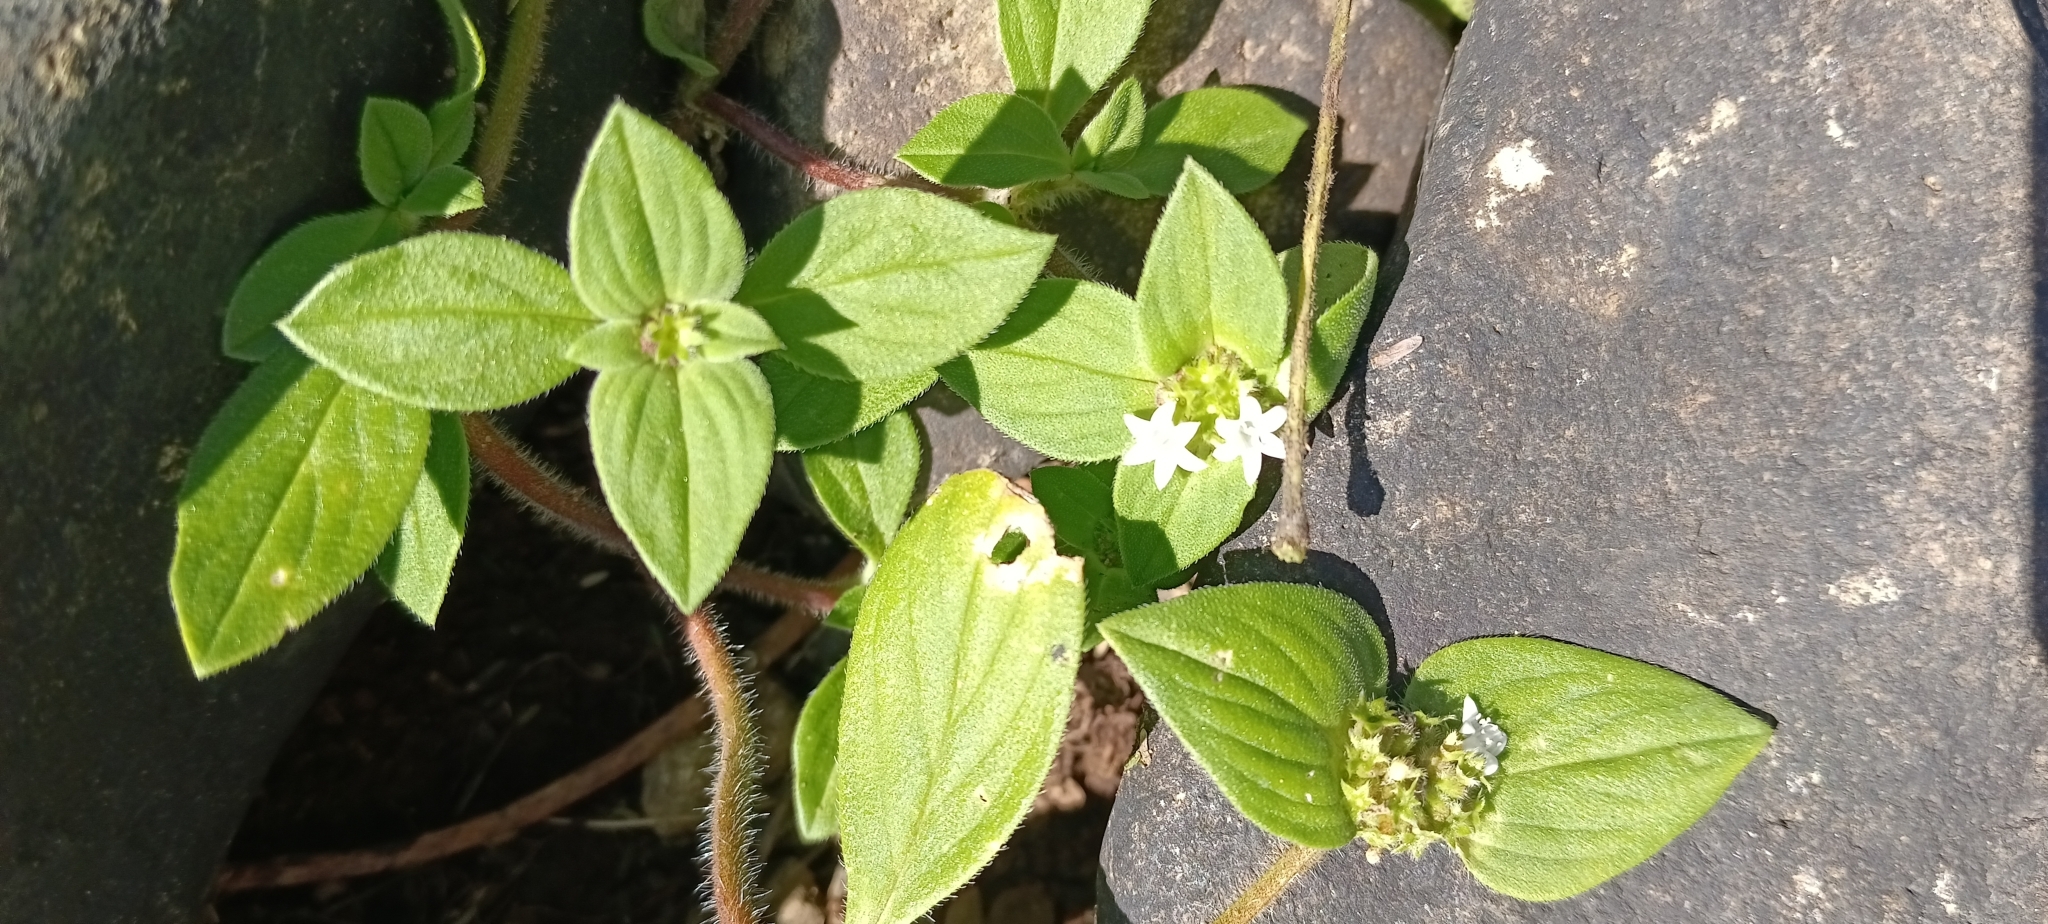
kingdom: Plantae
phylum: Tracheophyta
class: Magnoliopsida
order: Gentianales
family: Rubiaceae
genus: Richardia
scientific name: Richardia brasiliensis
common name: Tropical mexican clover
